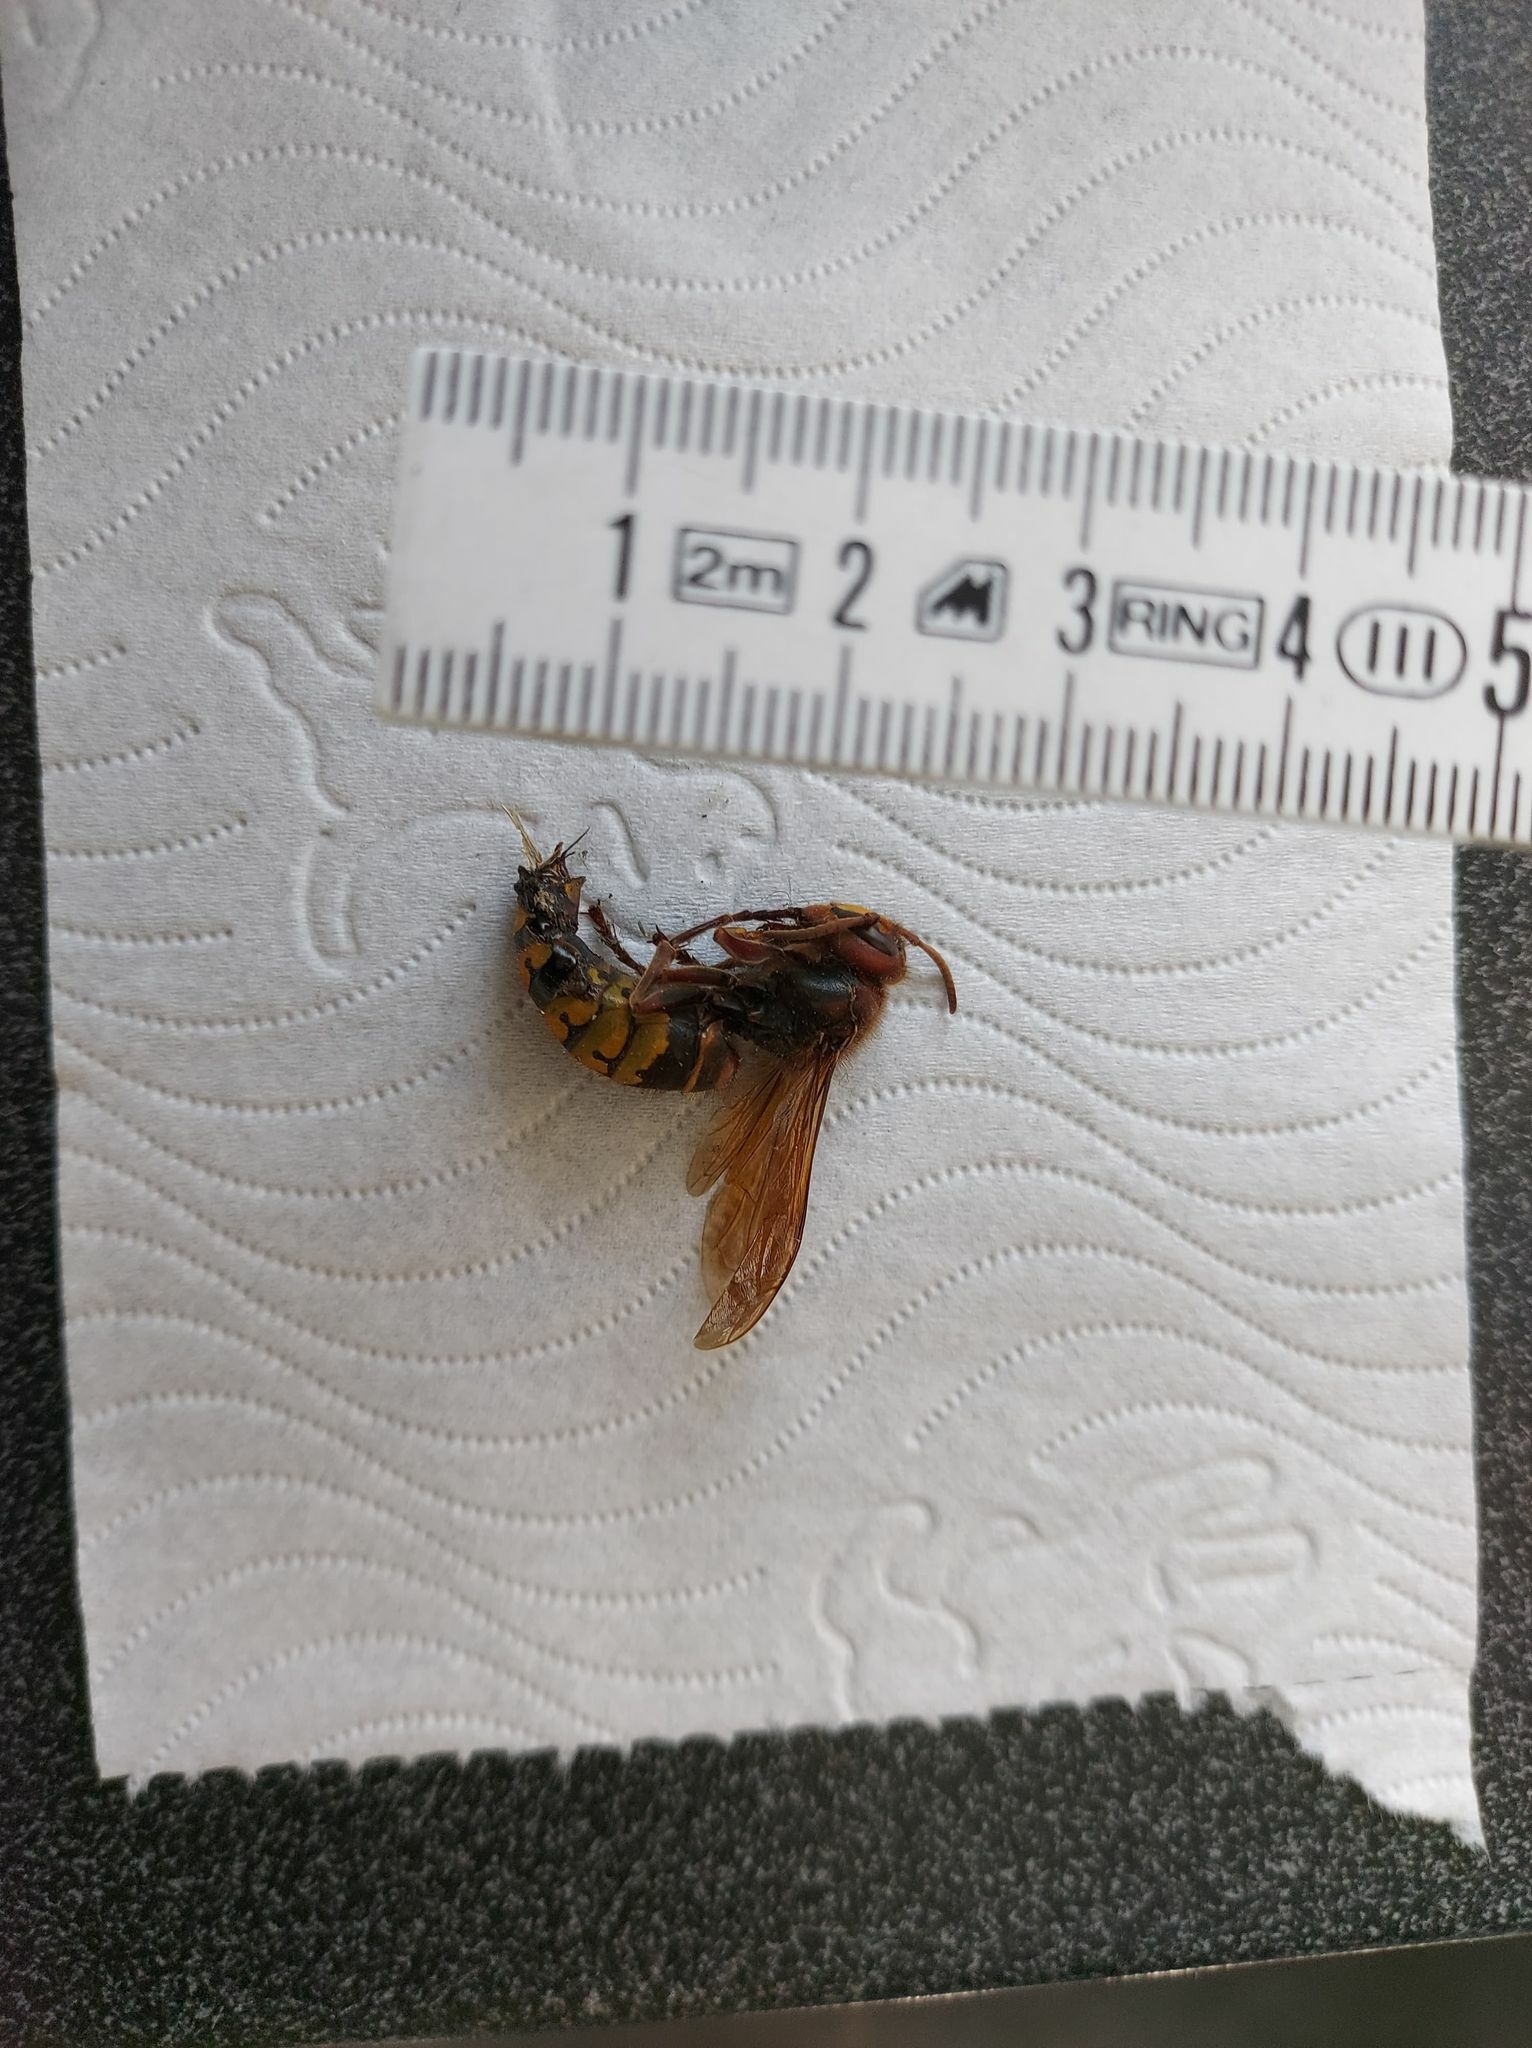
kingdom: Animalia
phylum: Arthropoda
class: Insecta
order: Hymenoptera
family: Vespidae
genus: Vespa
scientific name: Vespa crabro
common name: Hornet
